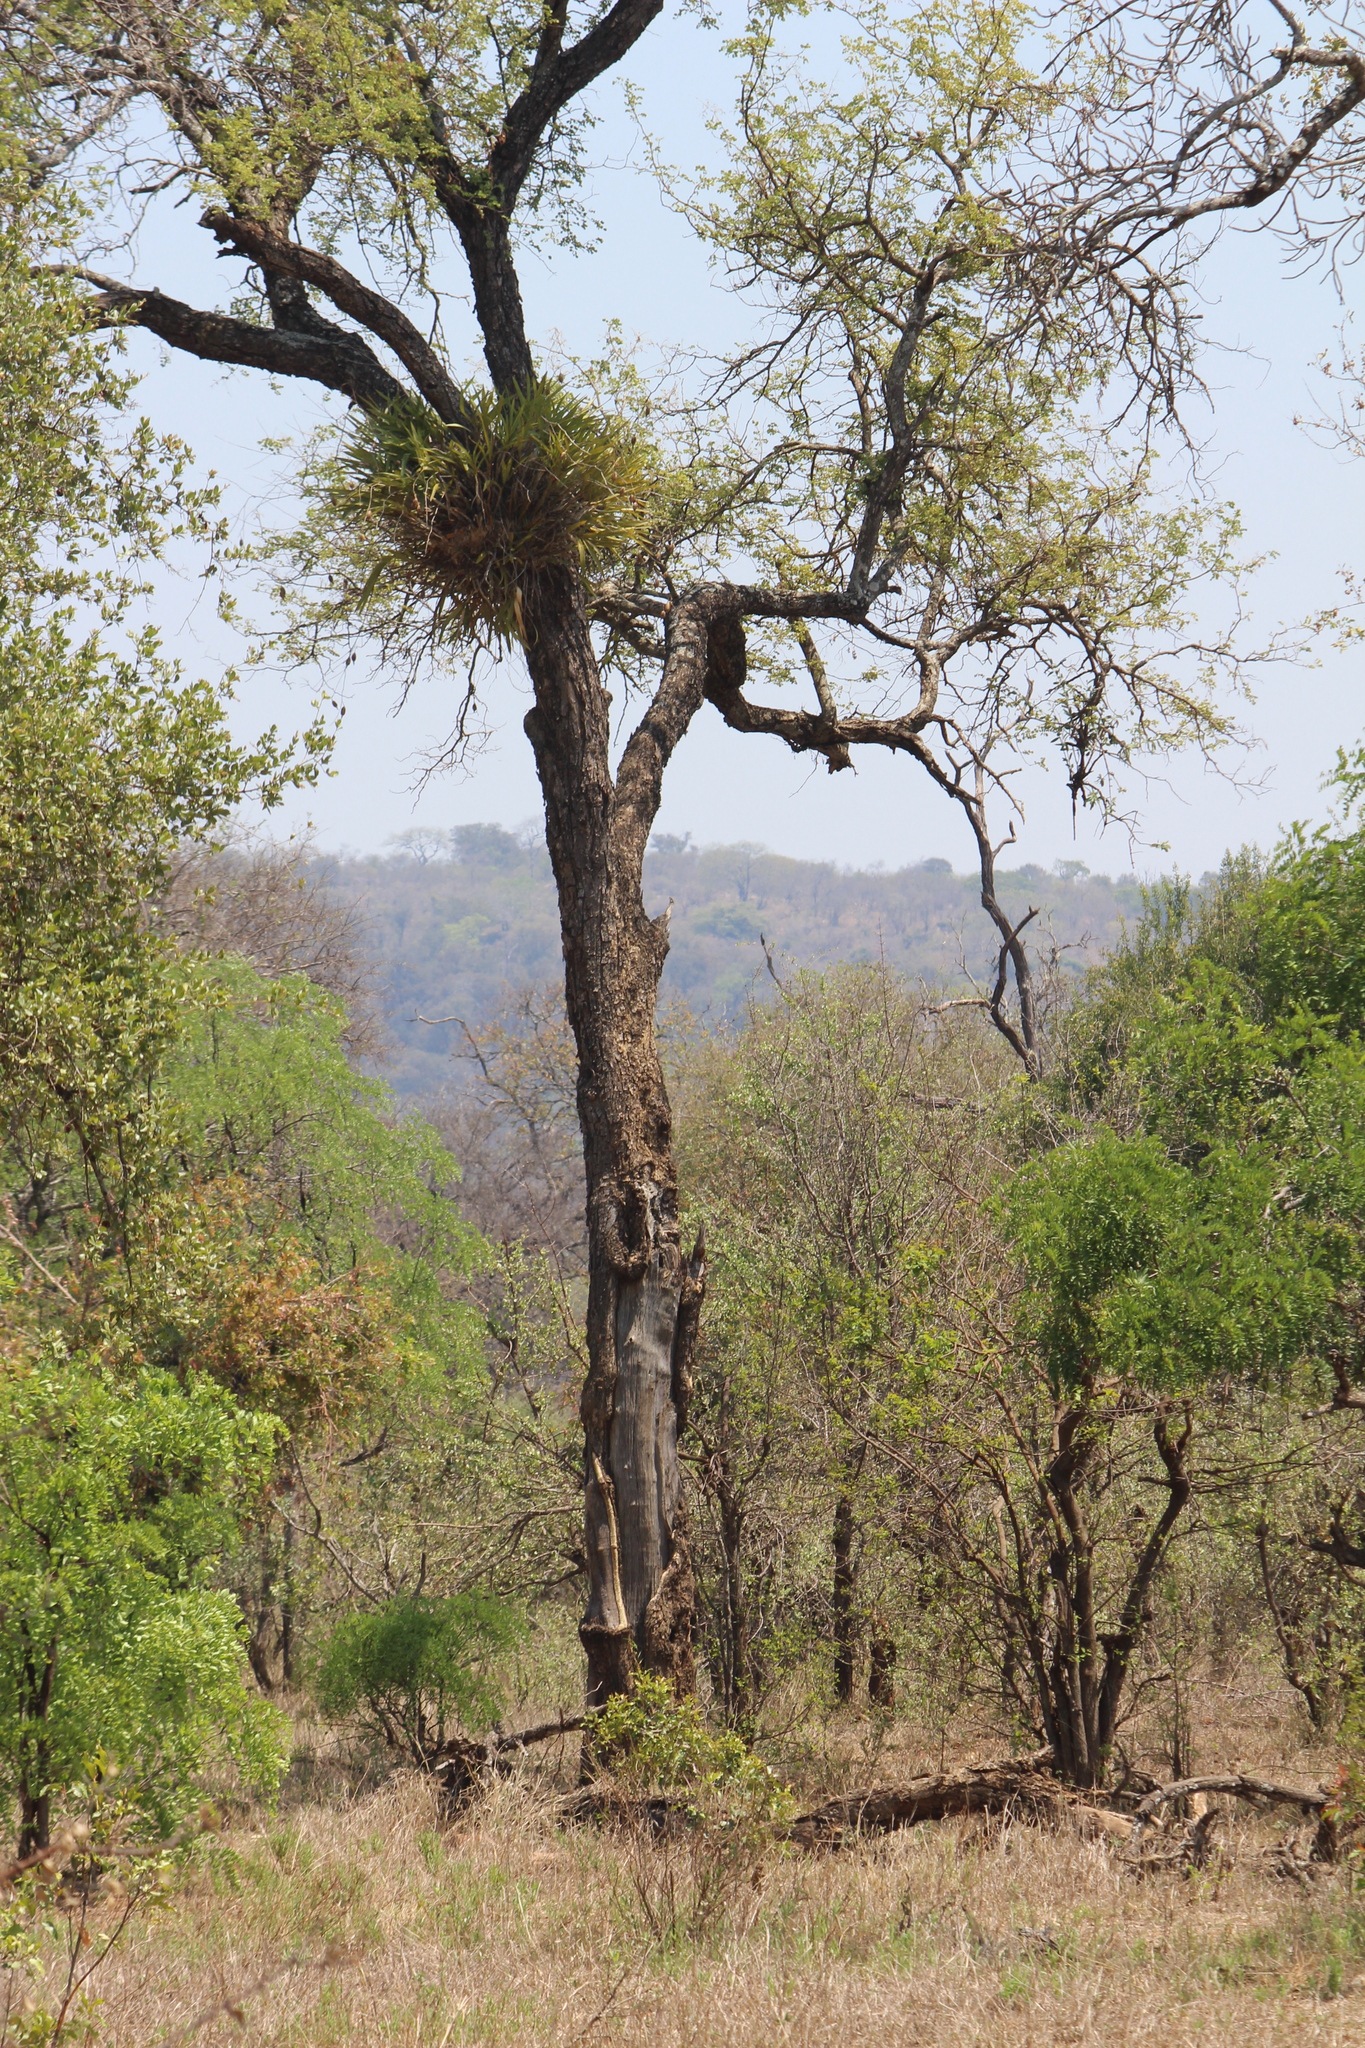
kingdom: Plantae
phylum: Tracheophyta
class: Liliopsida
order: Asparagales
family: Orchidaceae
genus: Ansellia
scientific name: Ansellia africana
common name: African ansellia
